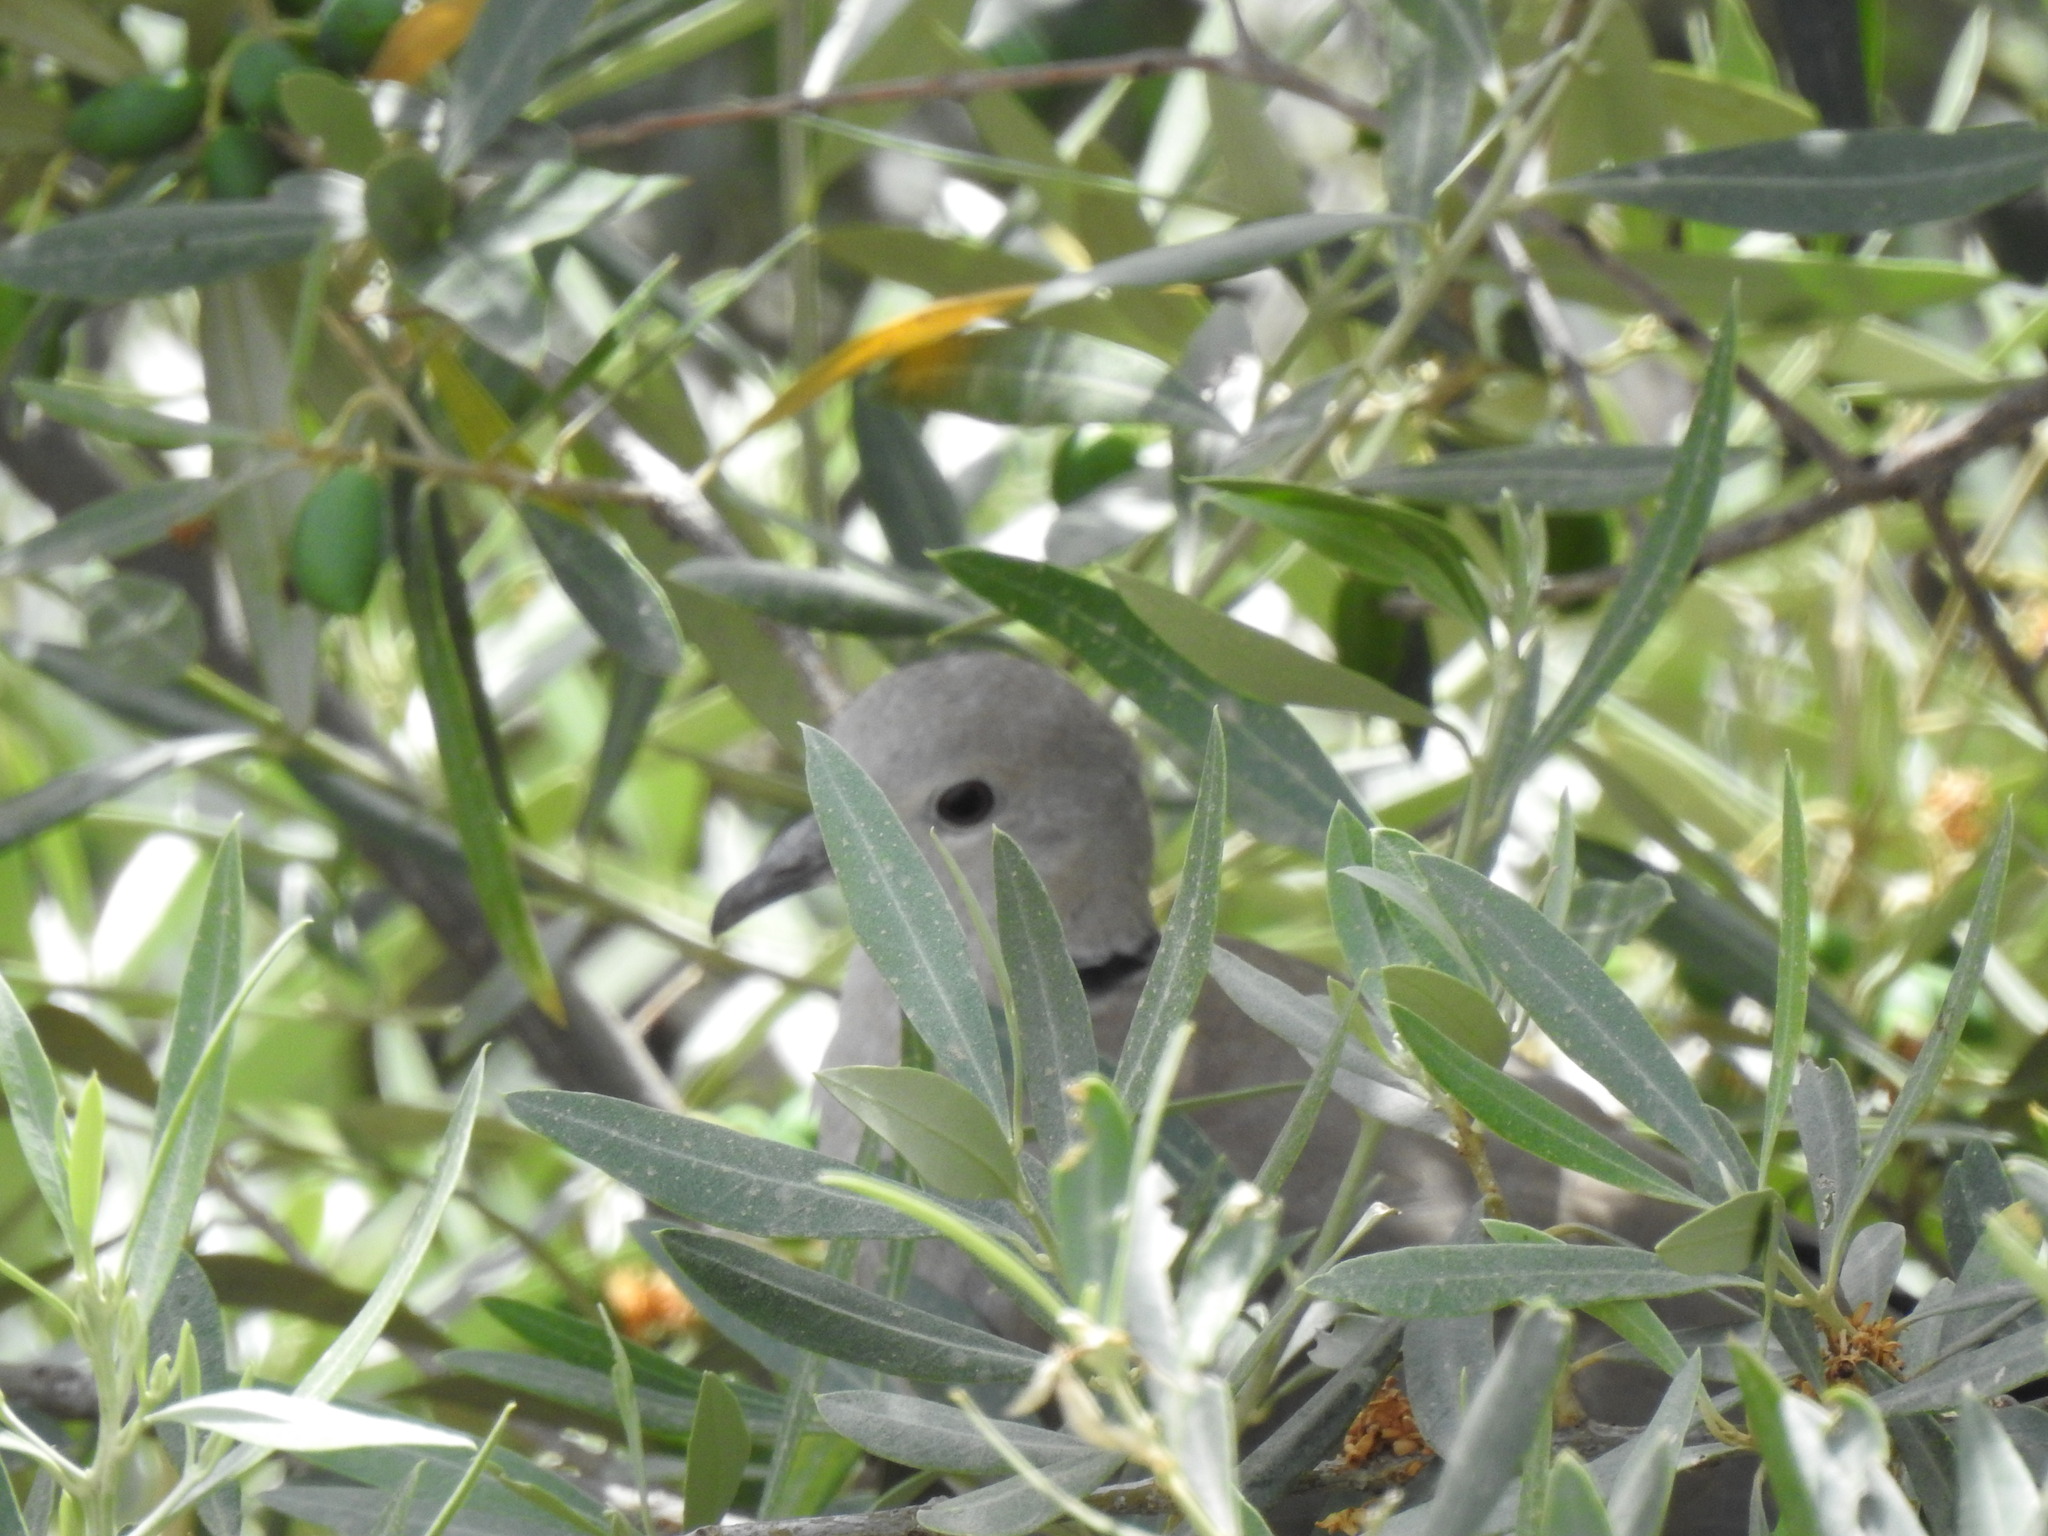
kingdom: Animalia
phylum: Chordata
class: Aves
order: Columbiformes
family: Columbidae
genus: Streptopelia
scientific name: Streptopelia decaocto
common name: Eurasian collared dove
